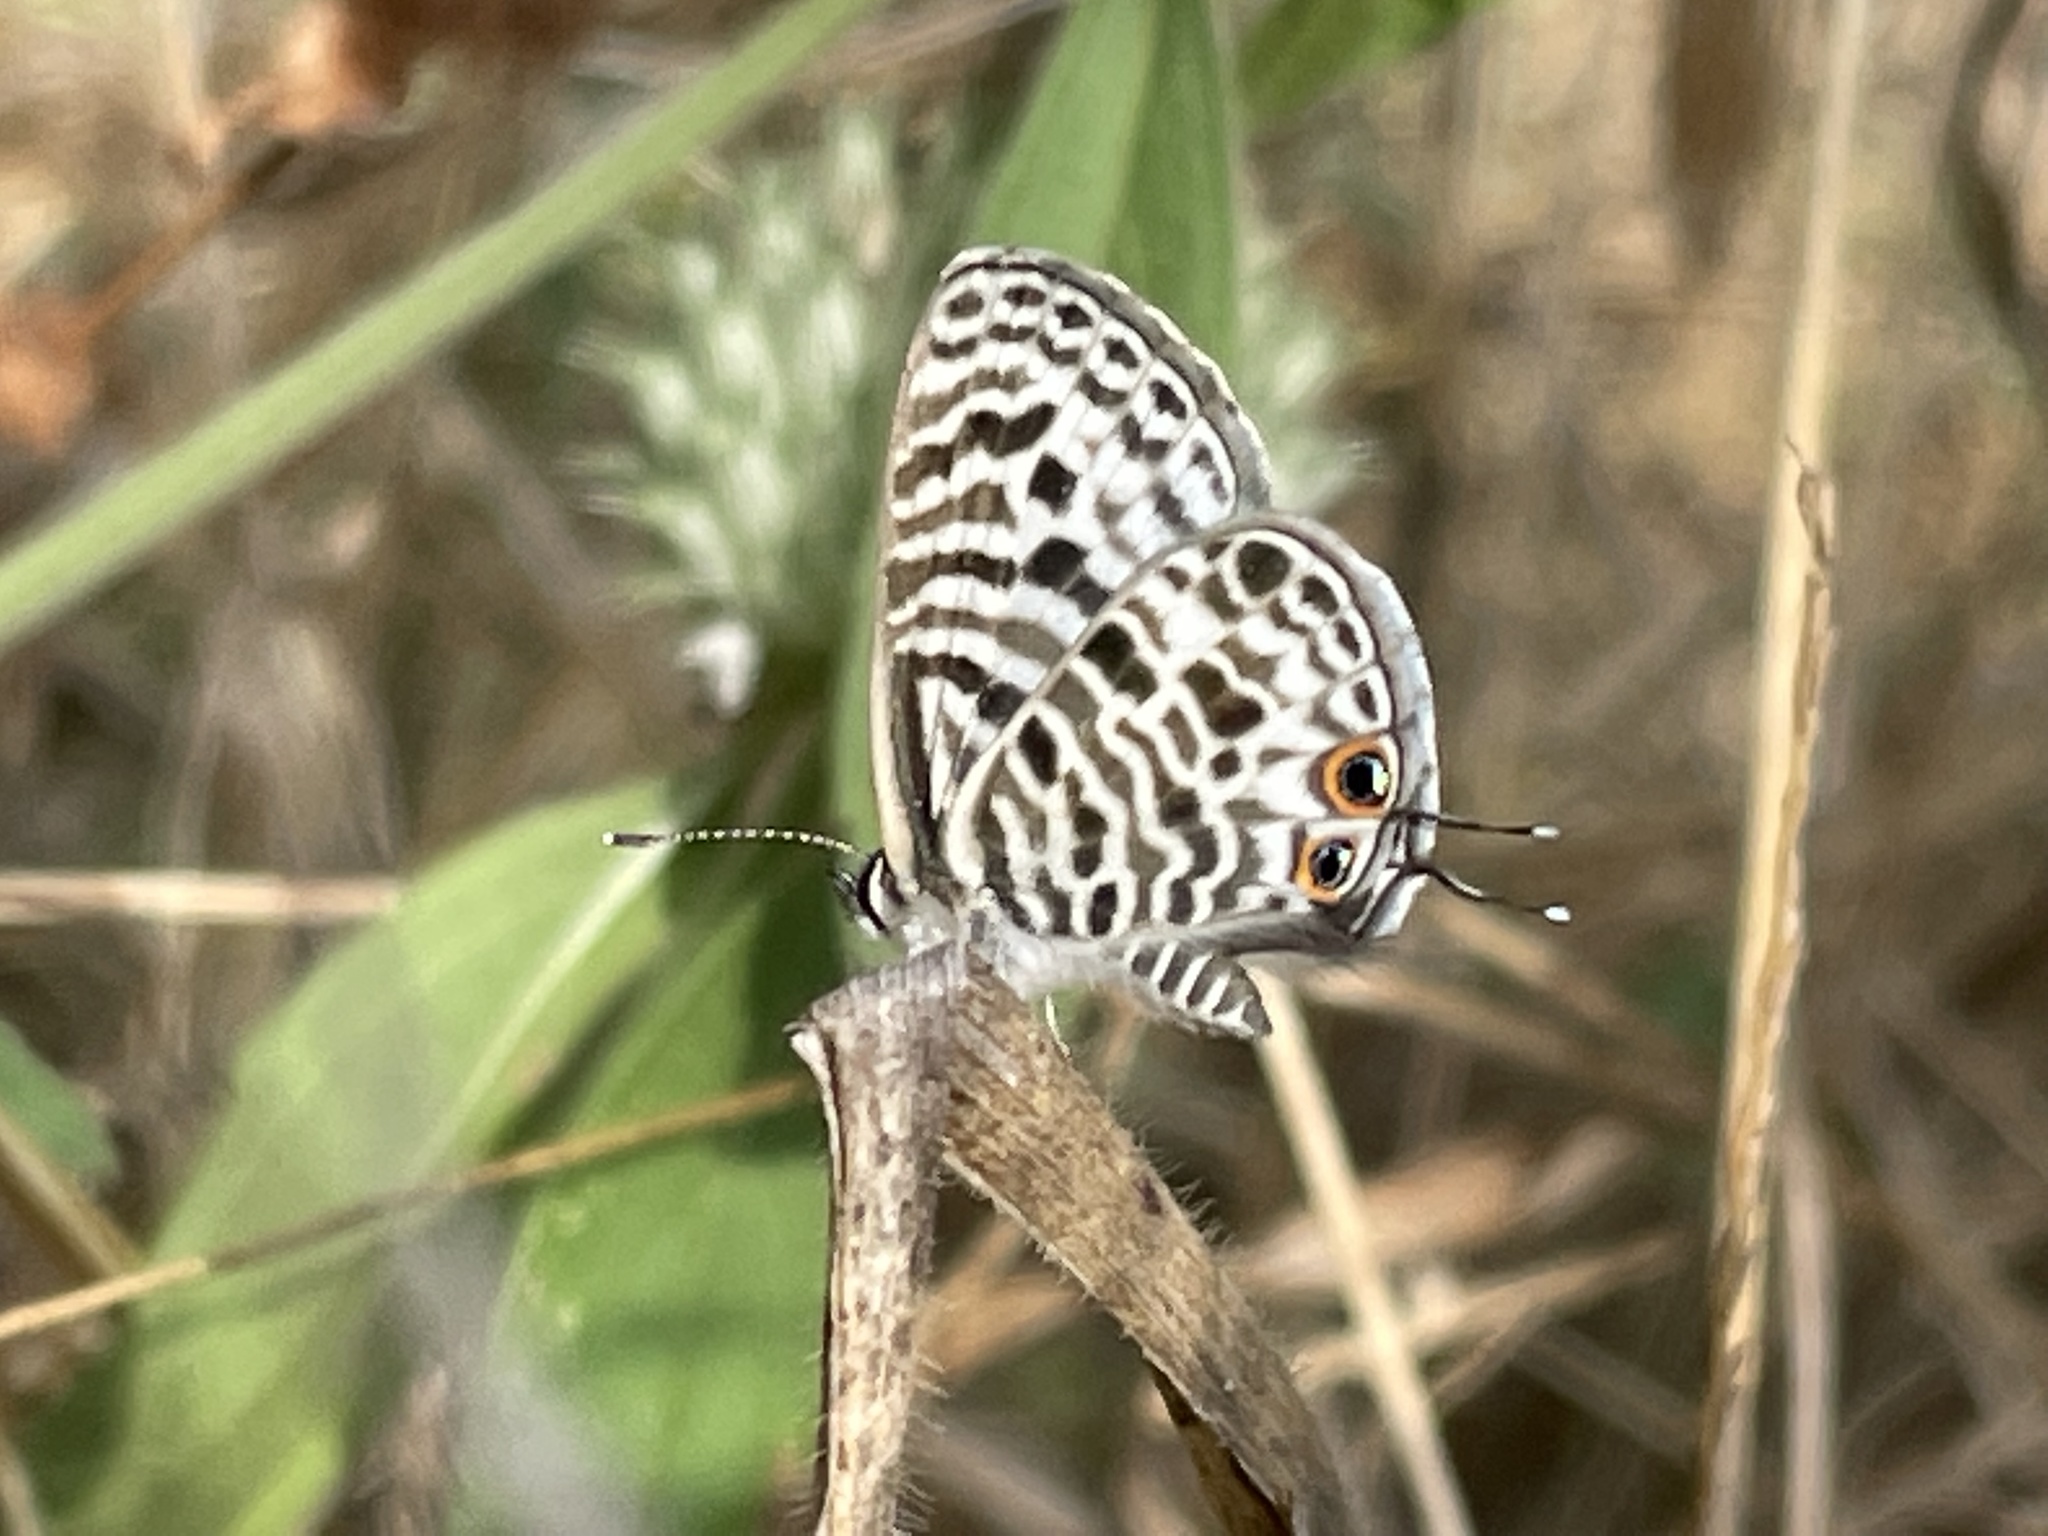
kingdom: Animalia
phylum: Arthropoda
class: Insecta
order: Lepidoptera
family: Lycaenidae
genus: Leptotes
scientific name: Leptotes
